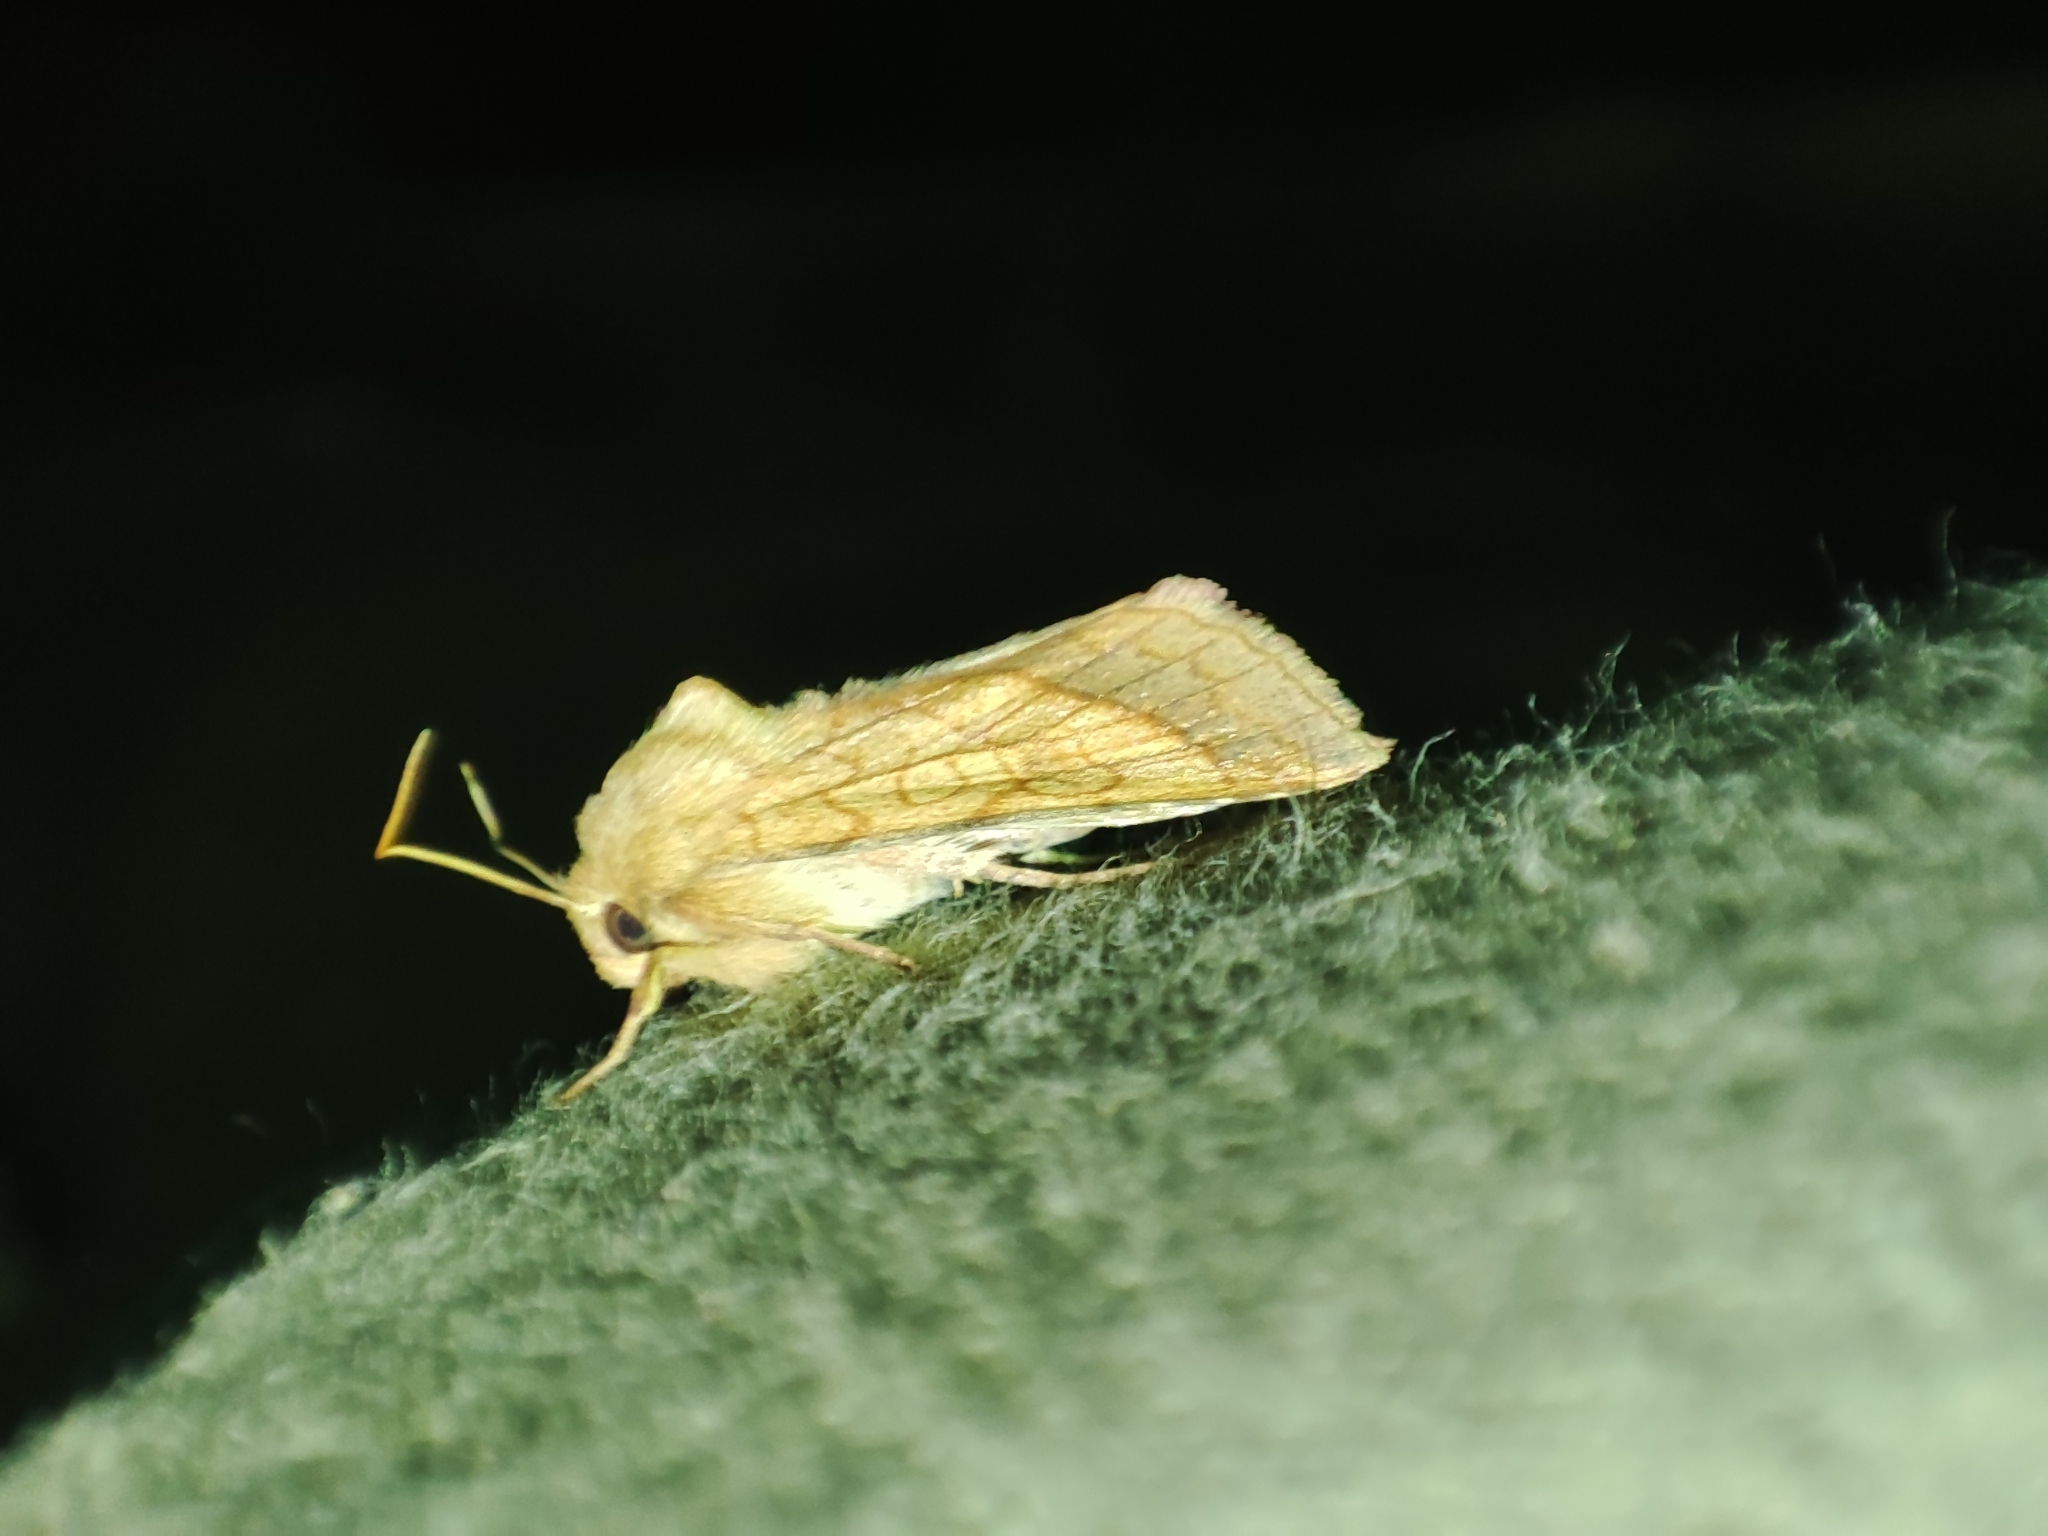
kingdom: Animalia
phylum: Arthropoda
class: Insecta
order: Lepidoptera
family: Noctuidae
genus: Pyrrhia
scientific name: Pyrrhia umbra
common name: Bordered sallow
